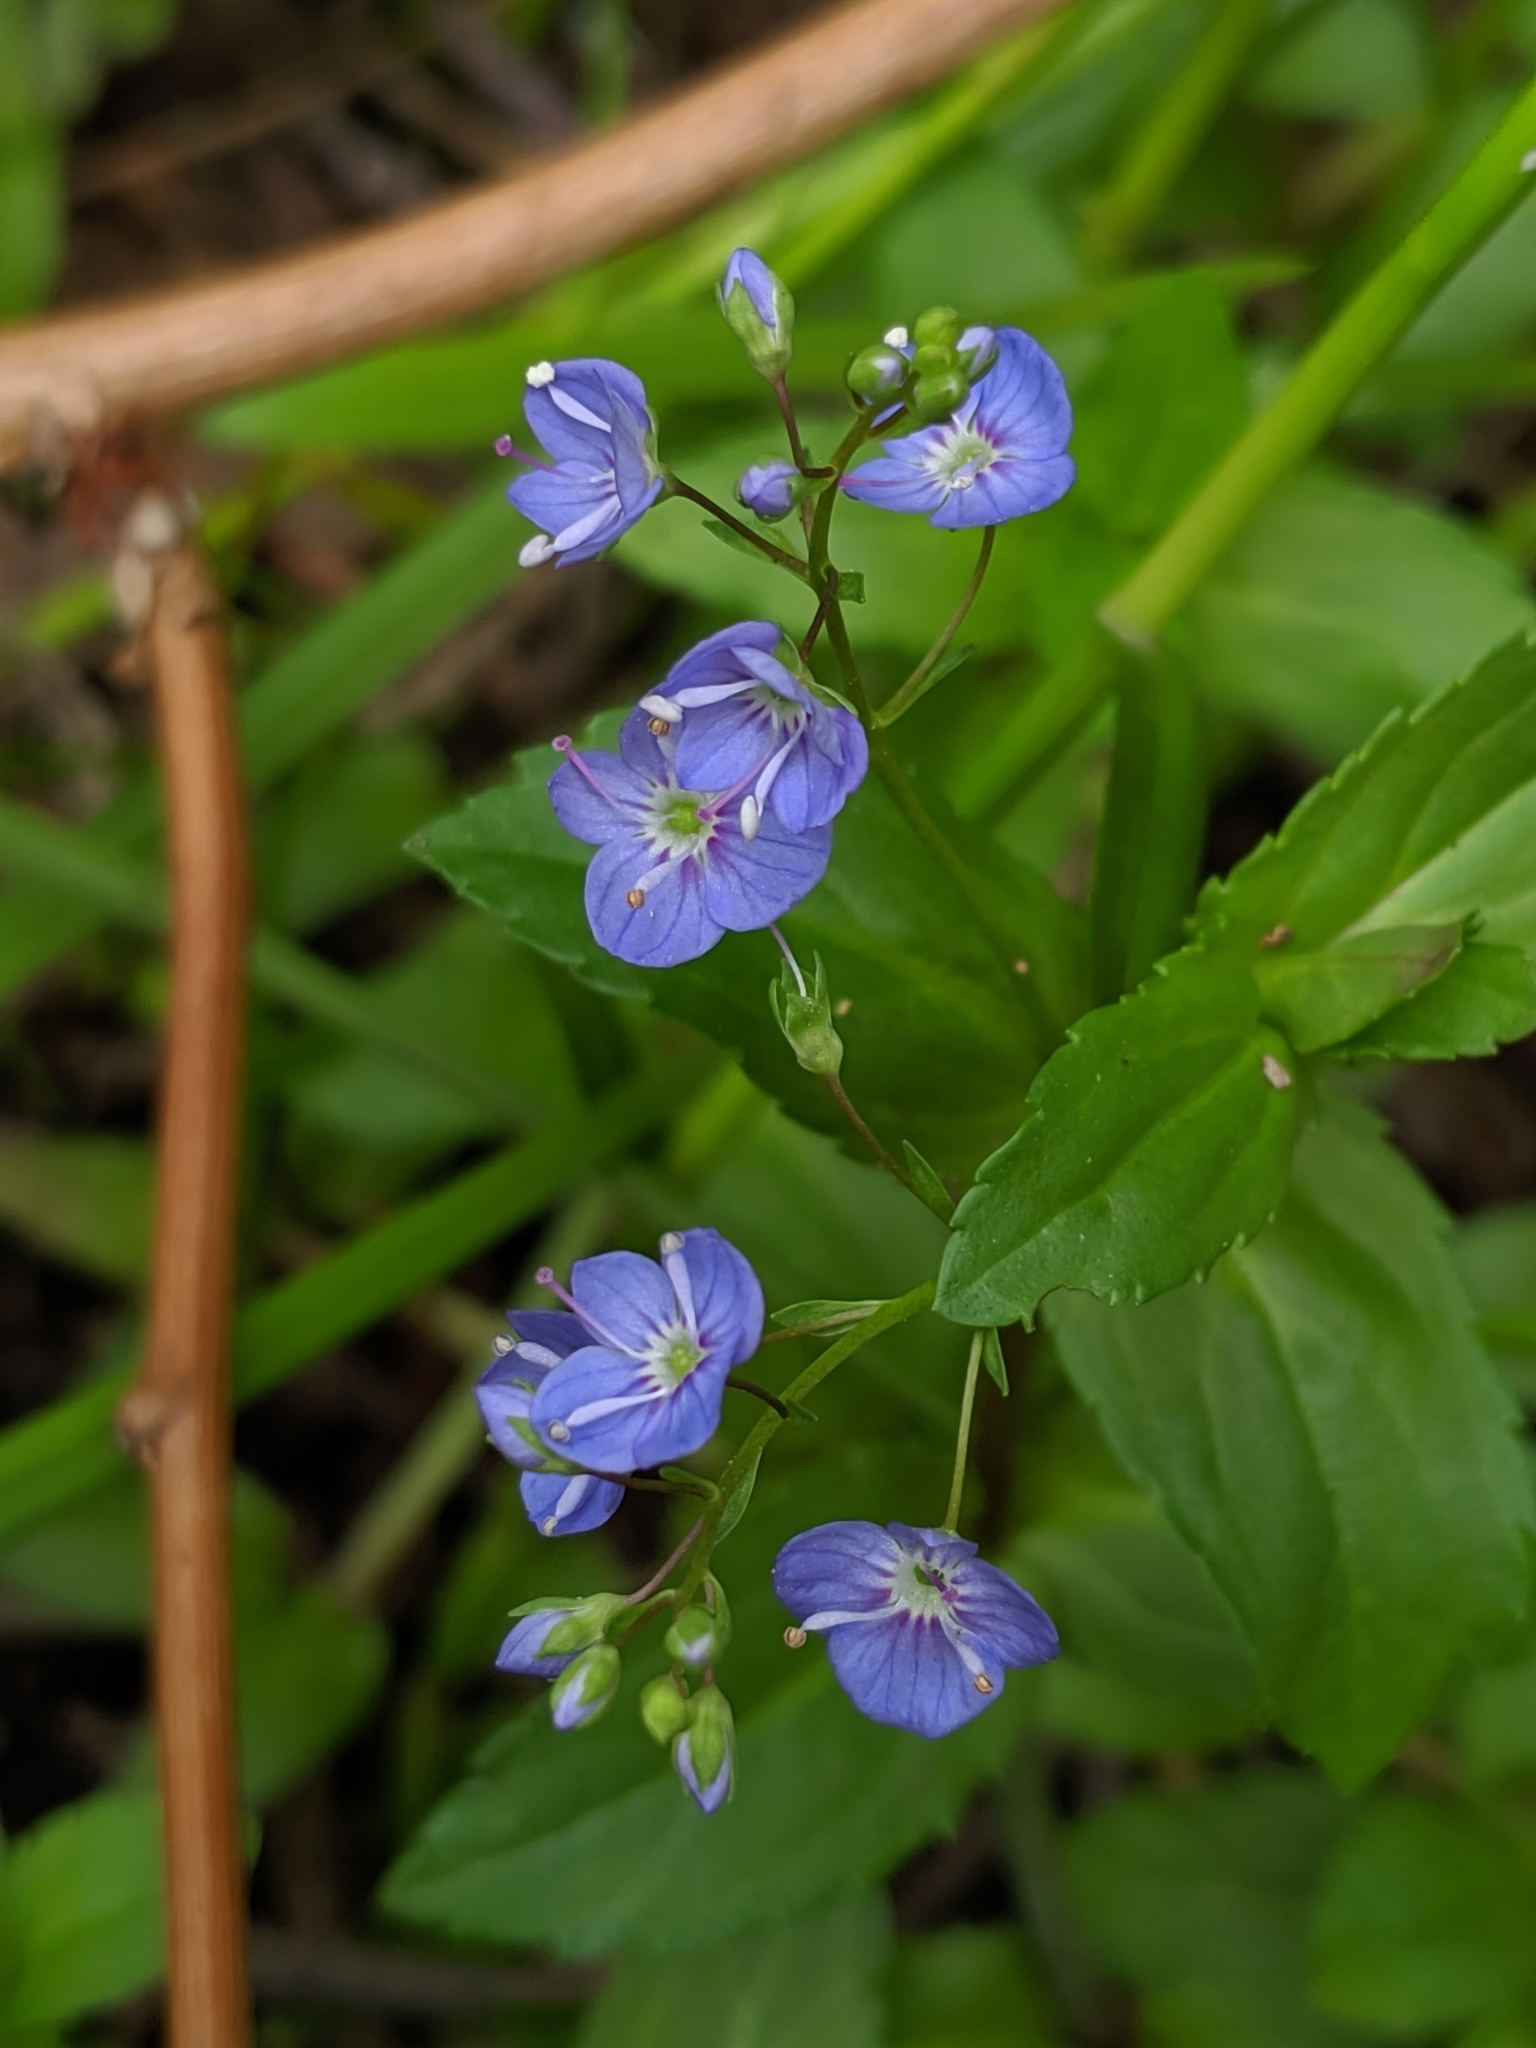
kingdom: Plantae
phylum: Tracheophyta
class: Magnoliopsida
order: Lamiales
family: Plantaginaceae
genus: Veronica
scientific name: Veronica americana
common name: American brooklime
